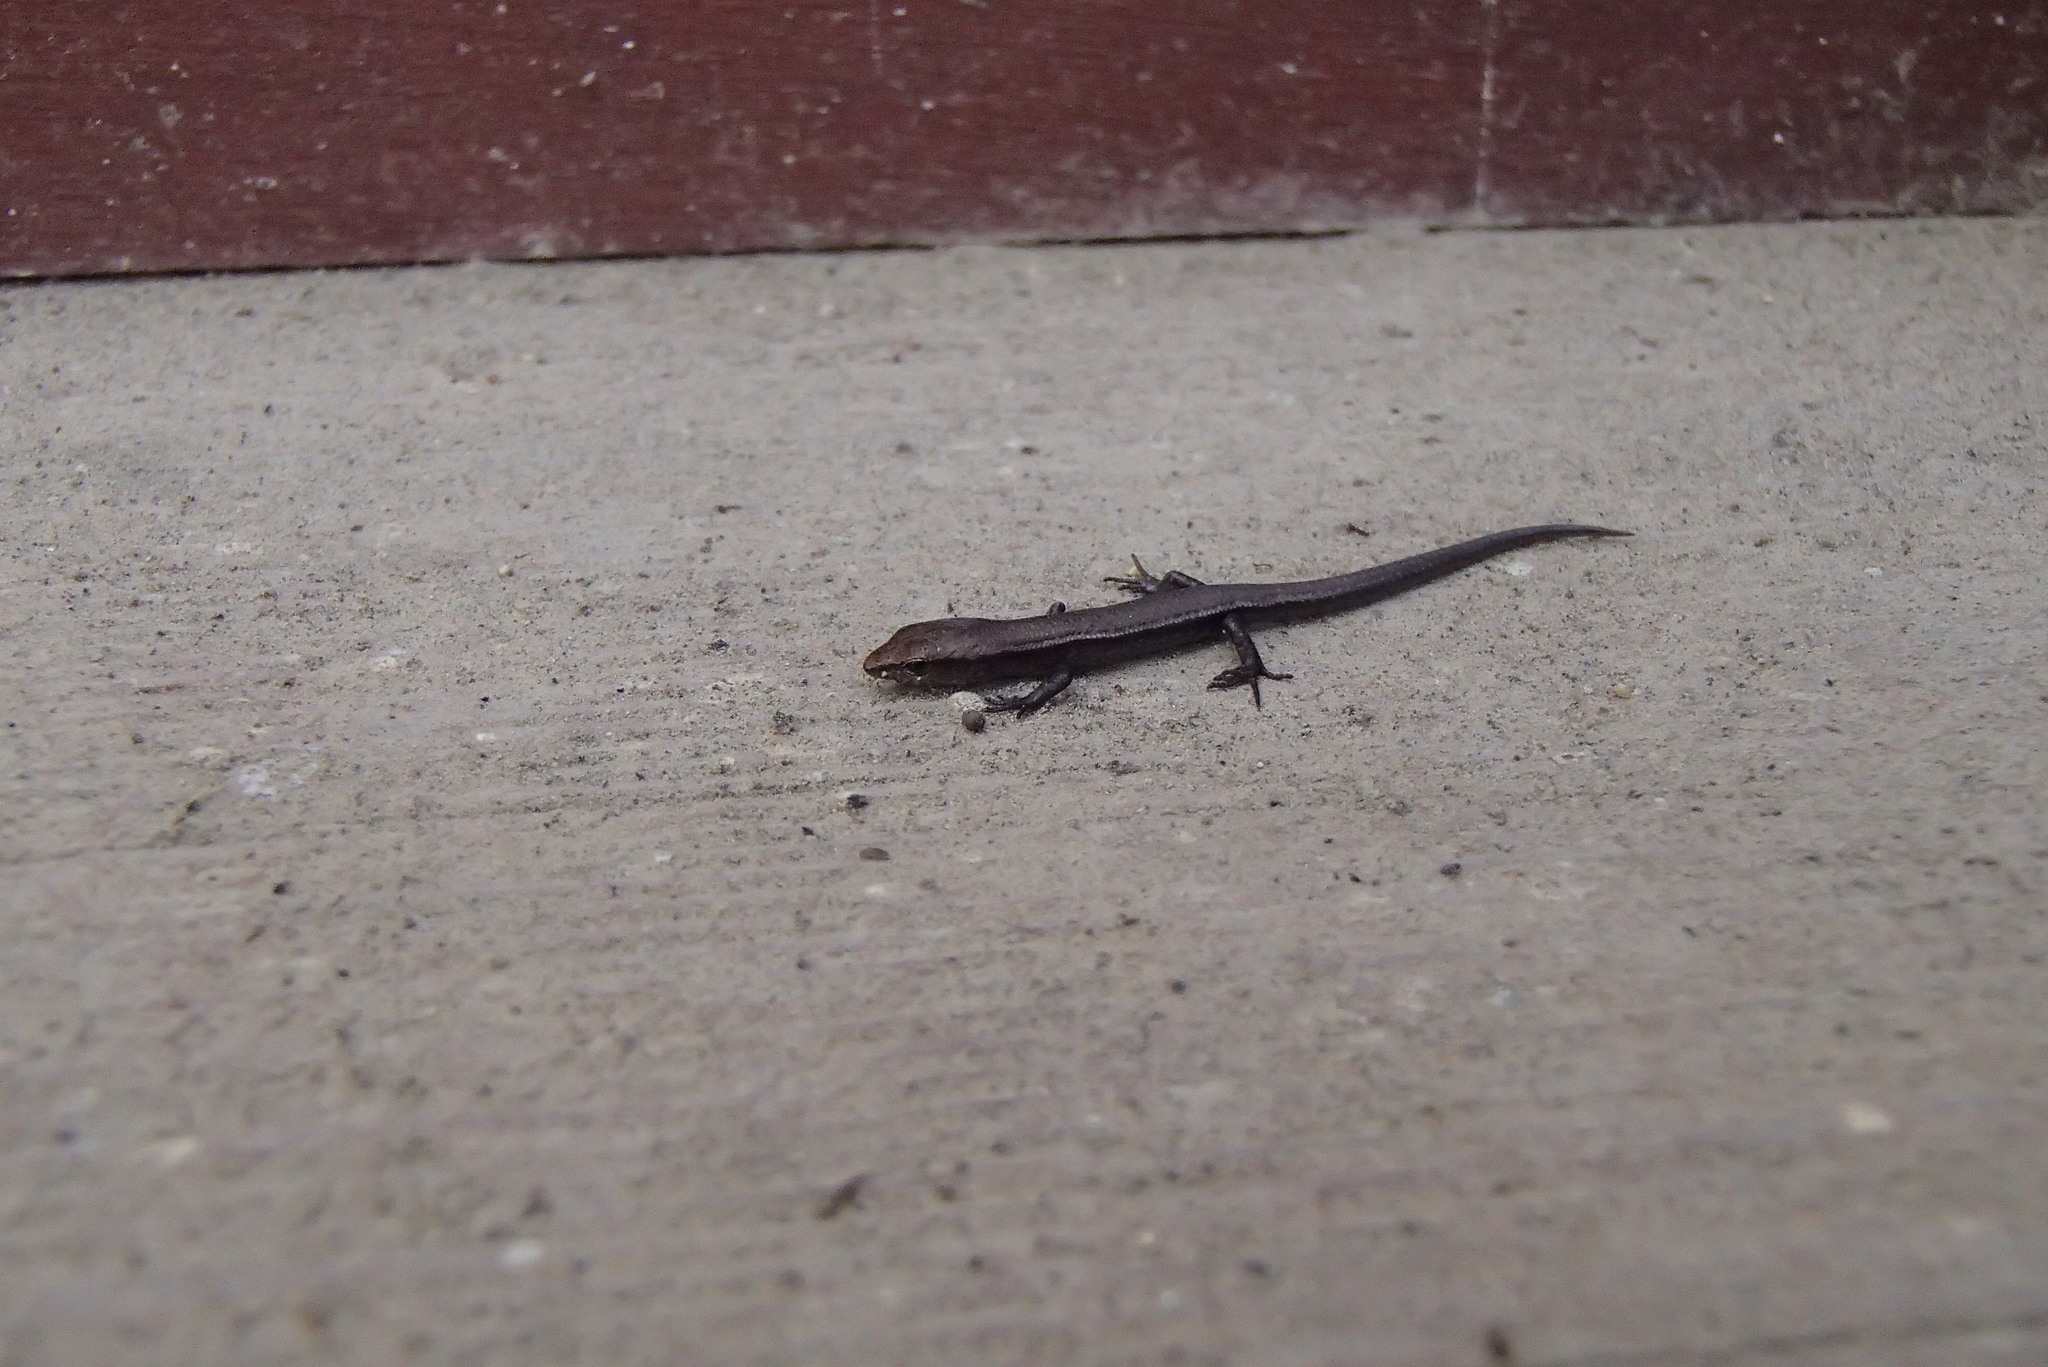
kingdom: Animalia
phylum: Chordata
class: Squamata
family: Scincidae
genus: Lampropholis
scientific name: Lampropholis delicata
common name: Plague skink
